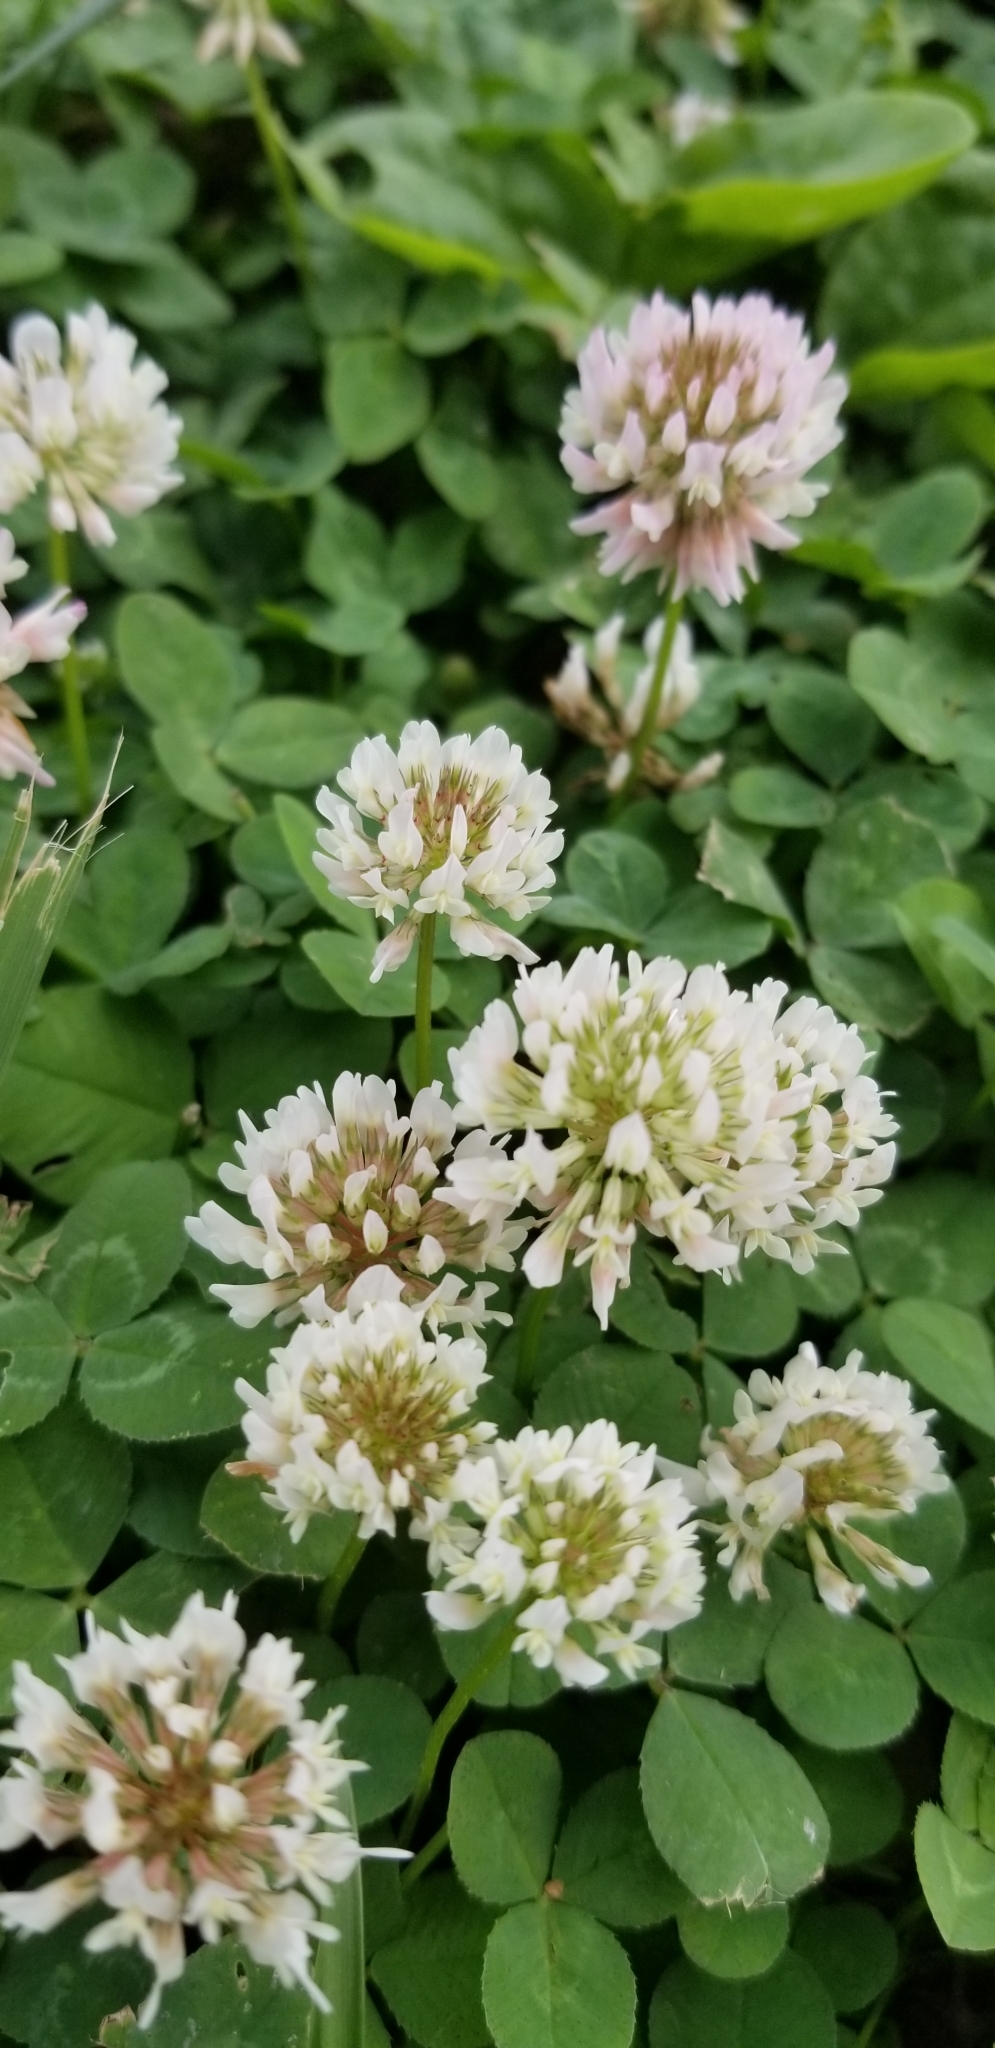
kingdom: Plantae
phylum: Tracheophyta
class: Magnoliopsida
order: Fabales
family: Fabaceae
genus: Trifolium
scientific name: Trifolium repens
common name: White clover
